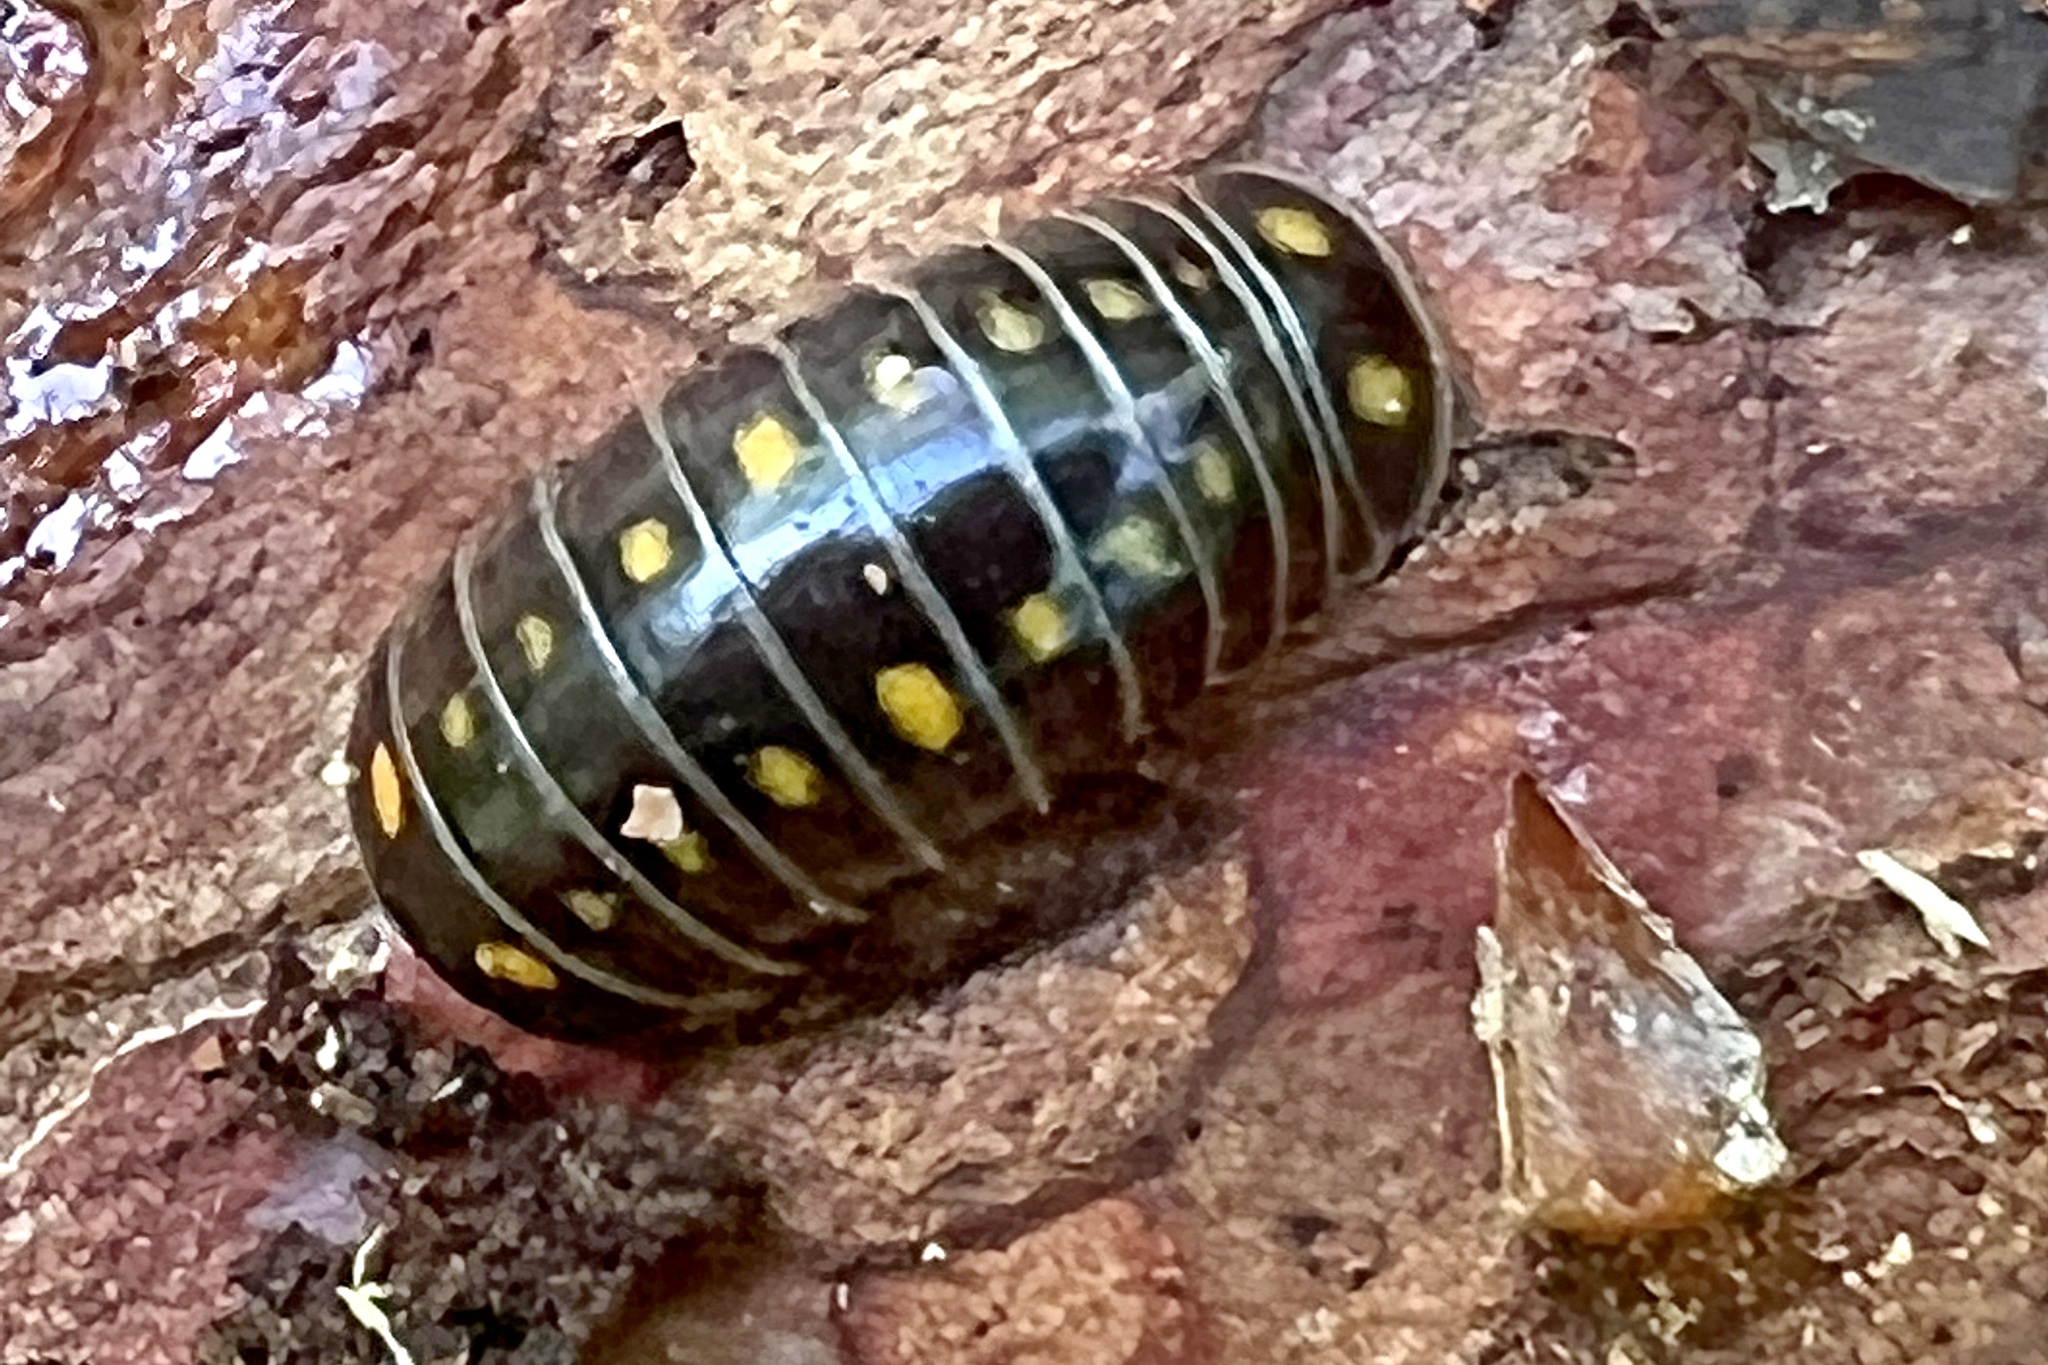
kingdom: Animalia
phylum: Arthropoda
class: Diplopoda
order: Glomerida
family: Glomeridae
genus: Glomeris
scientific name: Glomeris pustulata
